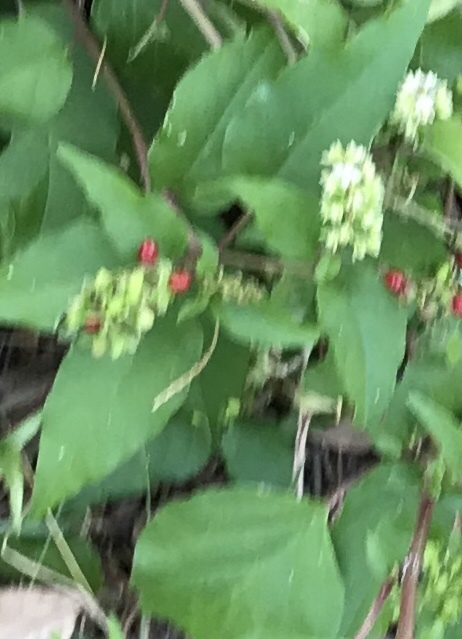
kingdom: Plantae
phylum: Tracheophyta
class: Magnoliopsida
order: Caryophyllales
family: Phytolaccaceae
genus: Rivina
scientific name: Rivina humilis
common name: Rougeplant
